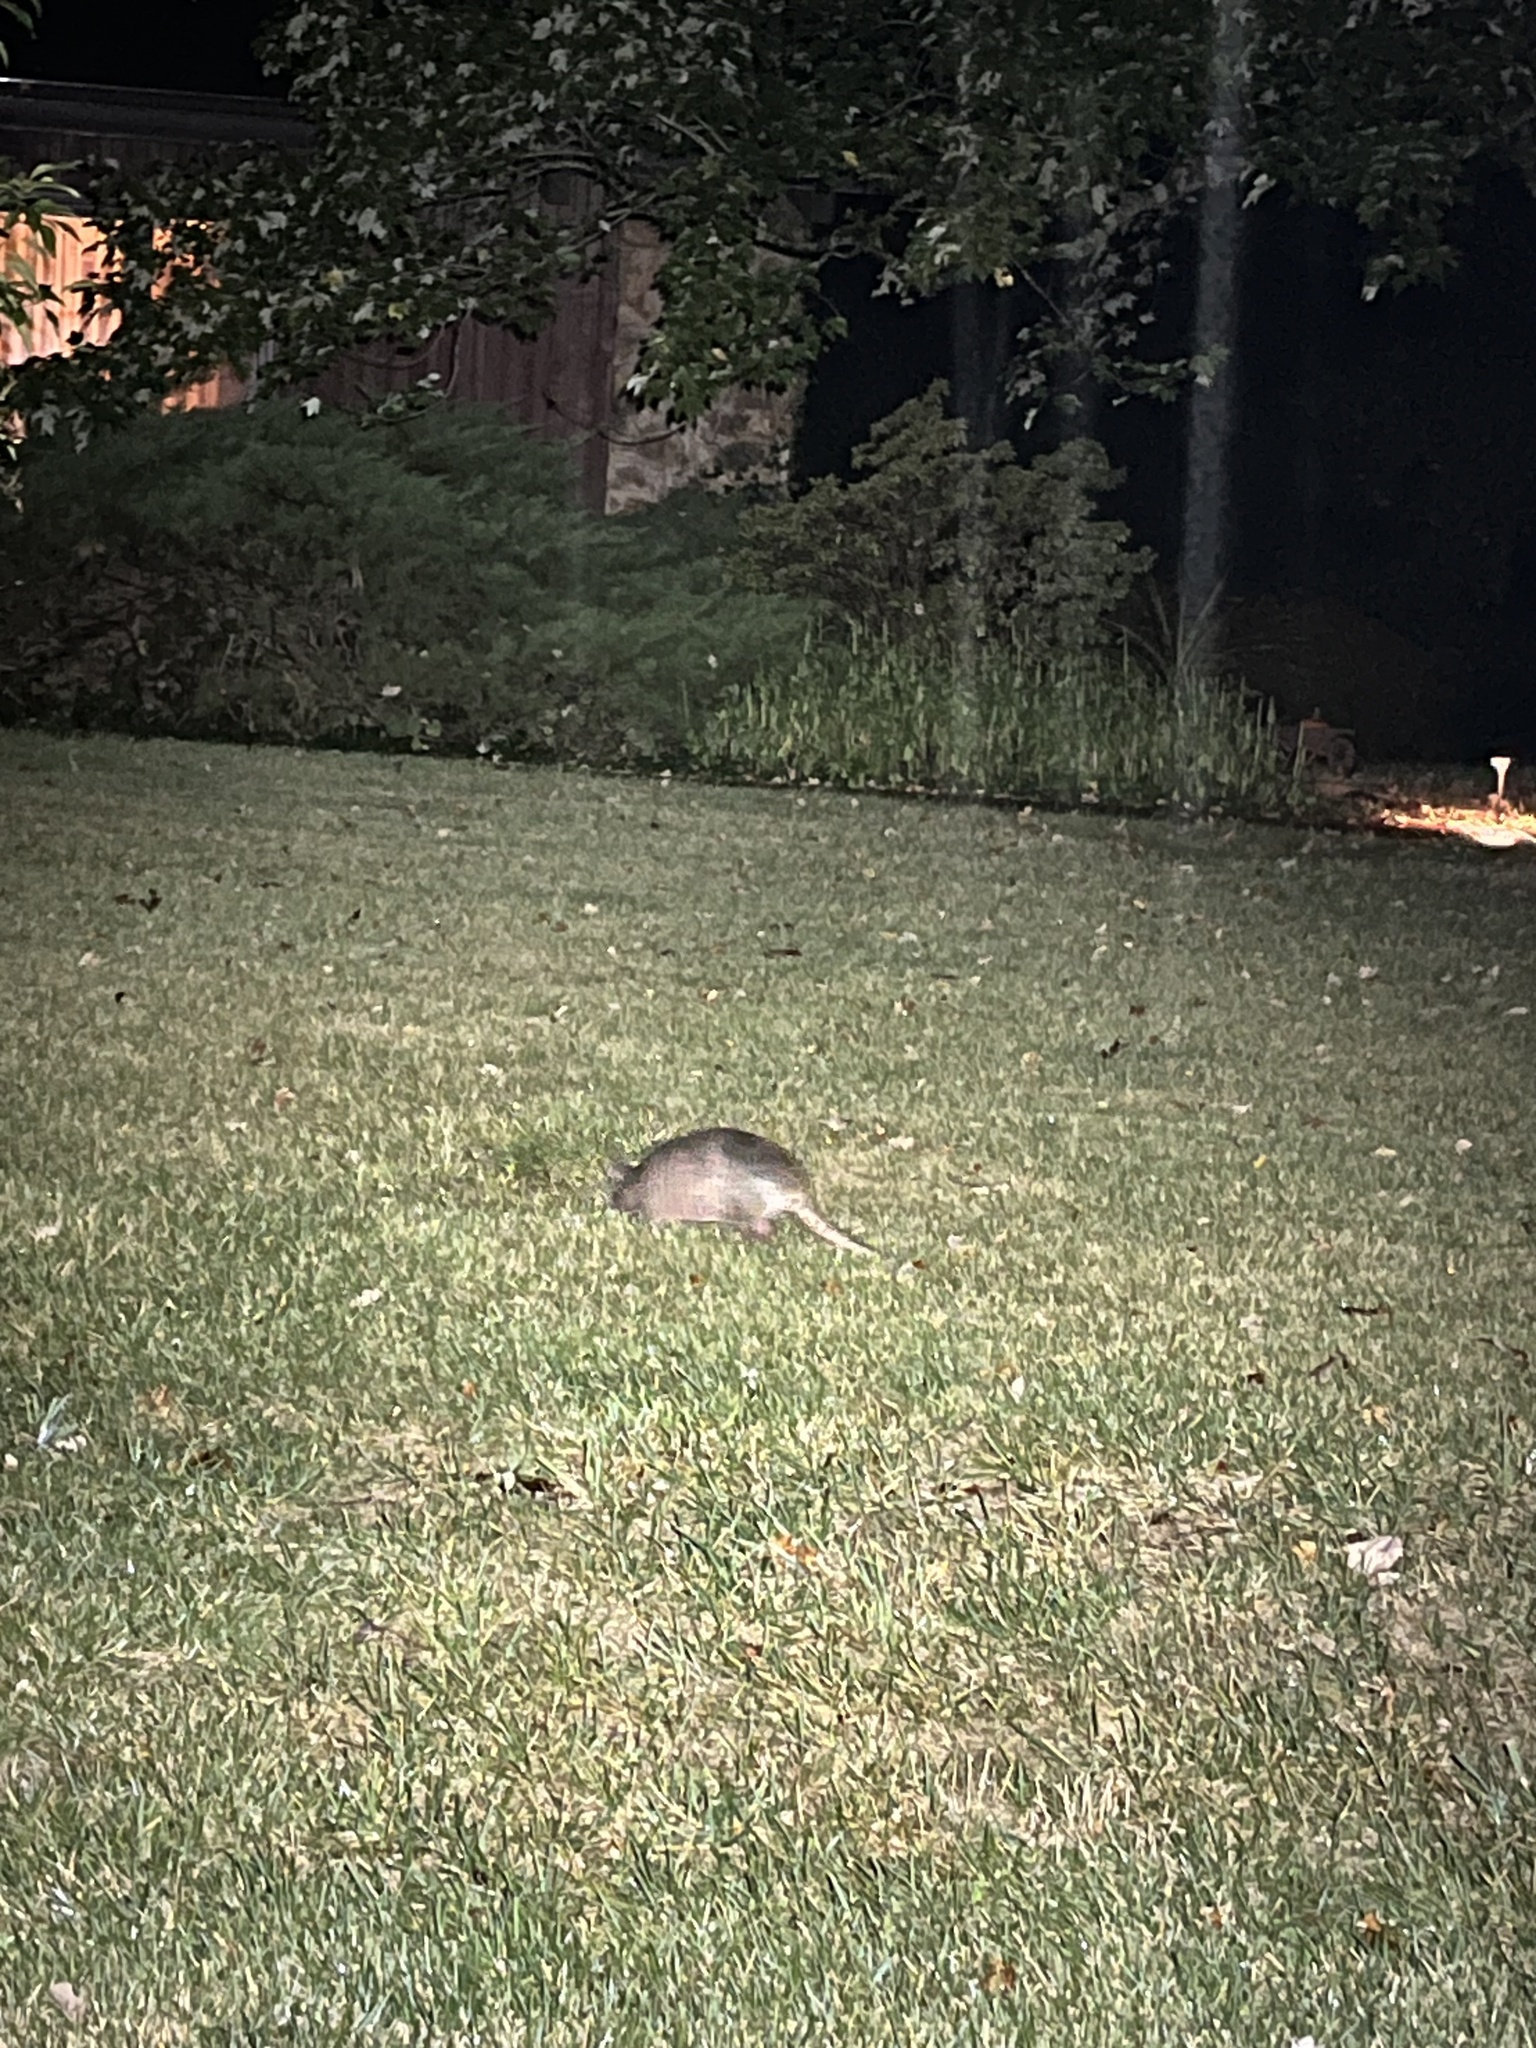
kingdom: Animalia
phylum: Chordata
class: Mammalia
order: Cingulata
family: Dasypodidae
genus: Dasypus
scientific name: Dasypus novemcinctus
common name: Nine-banded armadillo
